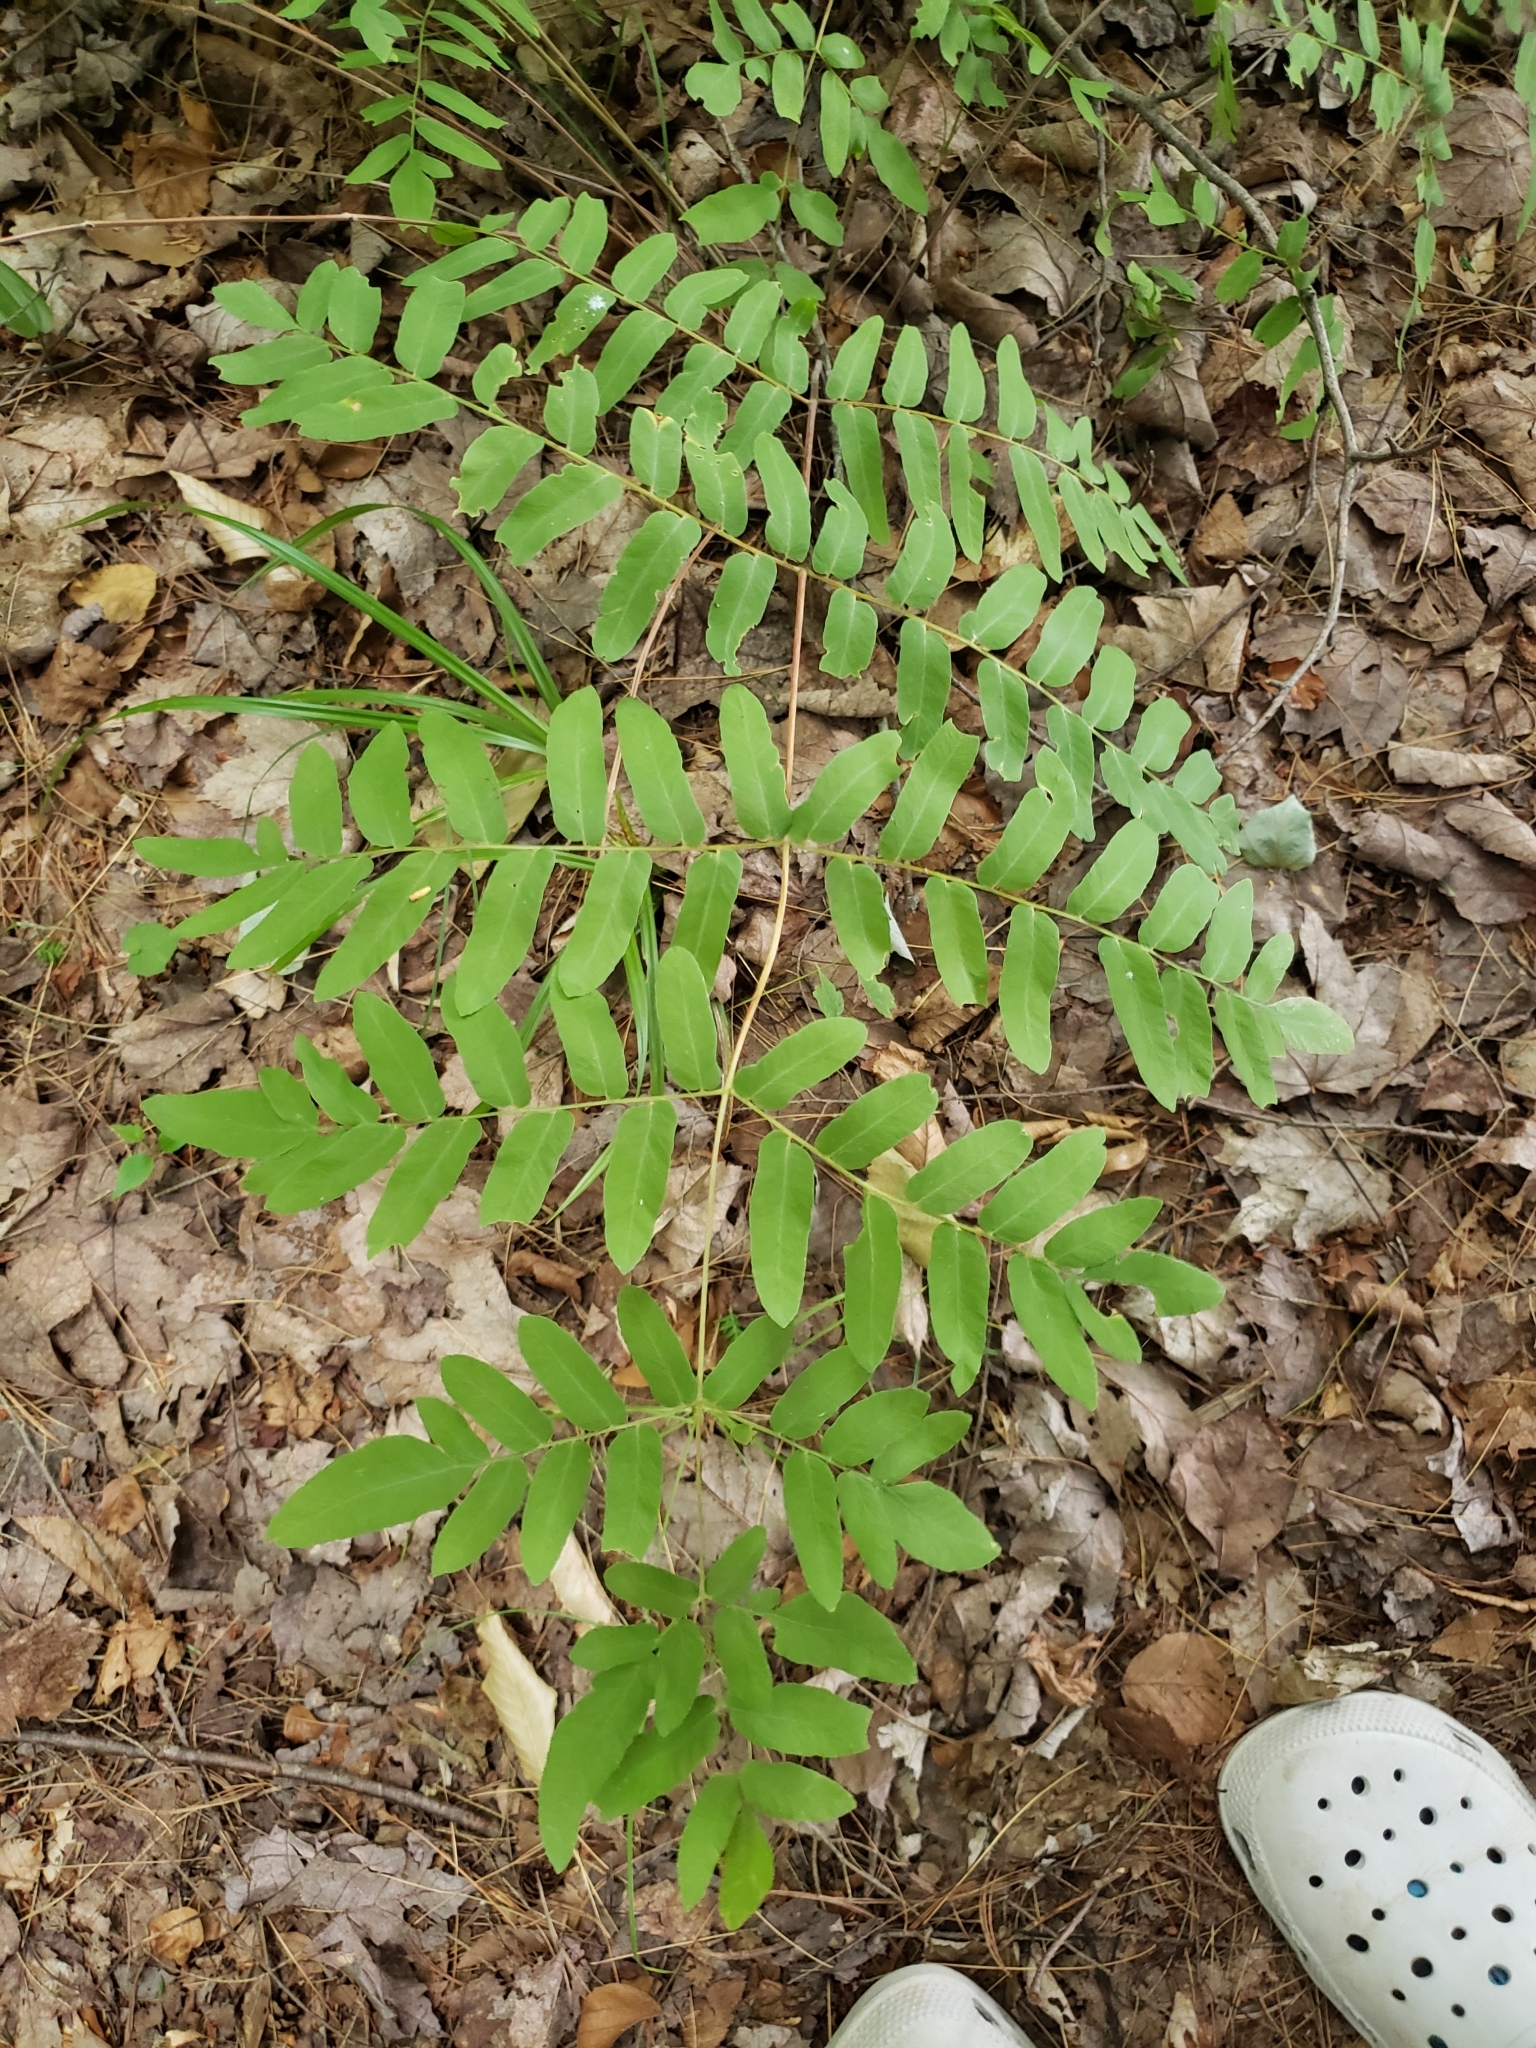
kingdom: Plantae
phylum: Tracheophyta
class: Polypodiopsida
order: Osmundales
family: Osmundaceae
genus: Osmunda
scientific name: Osmunda spectabilis
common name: American royal fern
